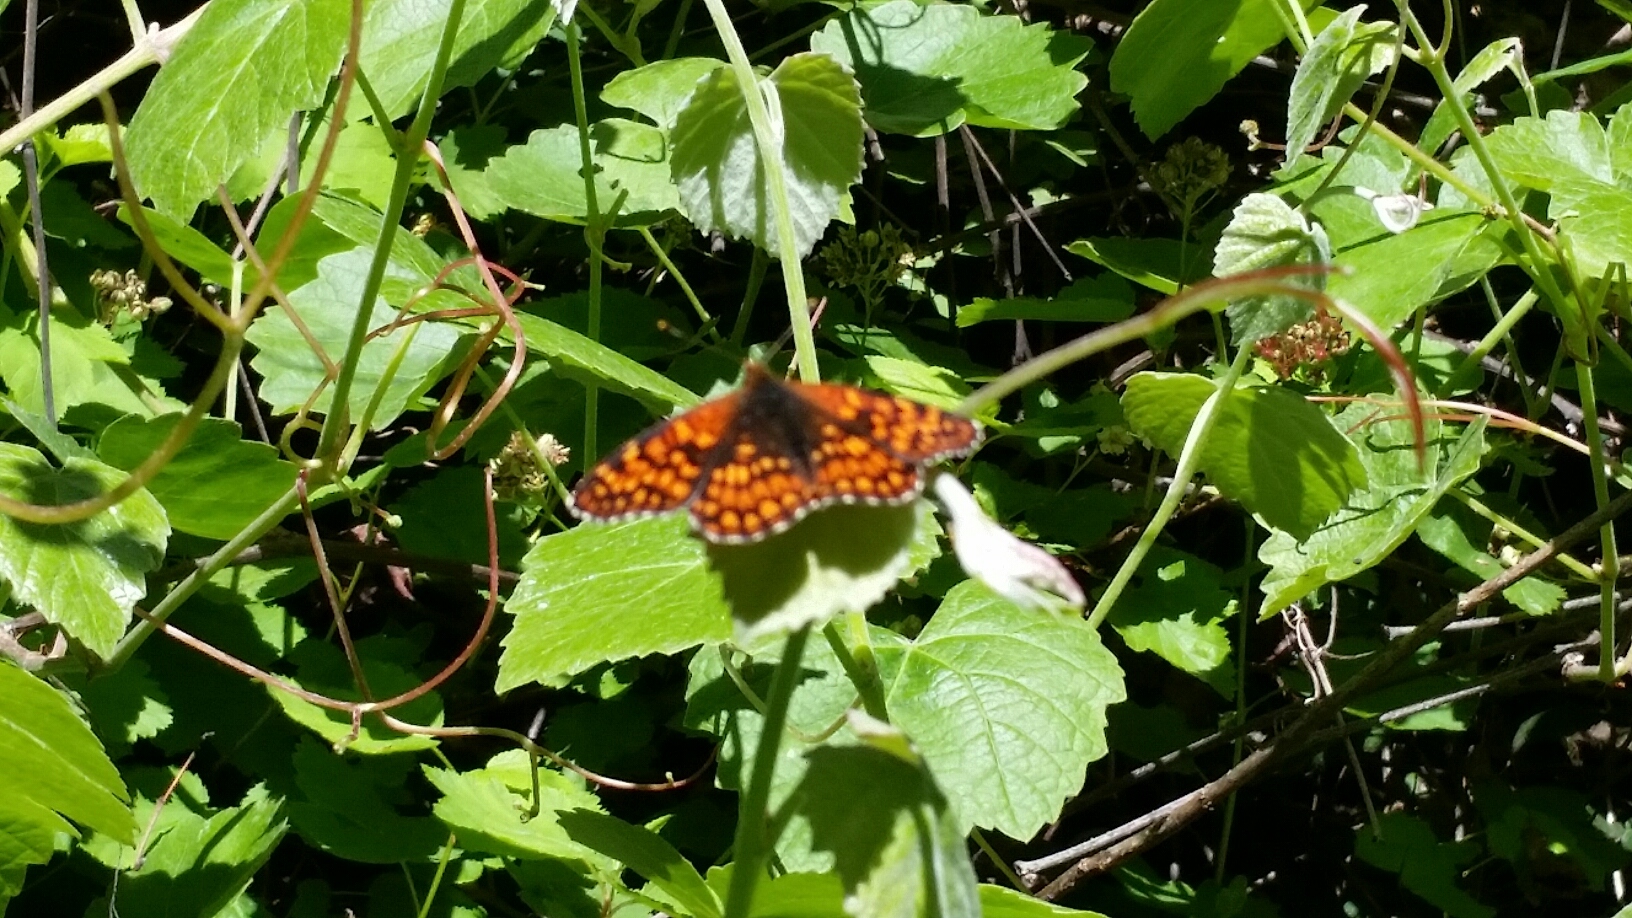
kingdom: Animalia
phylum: Arthropoda
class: Insecta
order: Lepidoptera
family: Nymphalidae
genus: Chlosyne
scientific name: Chlosyne palla
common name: Northern checkerspot
